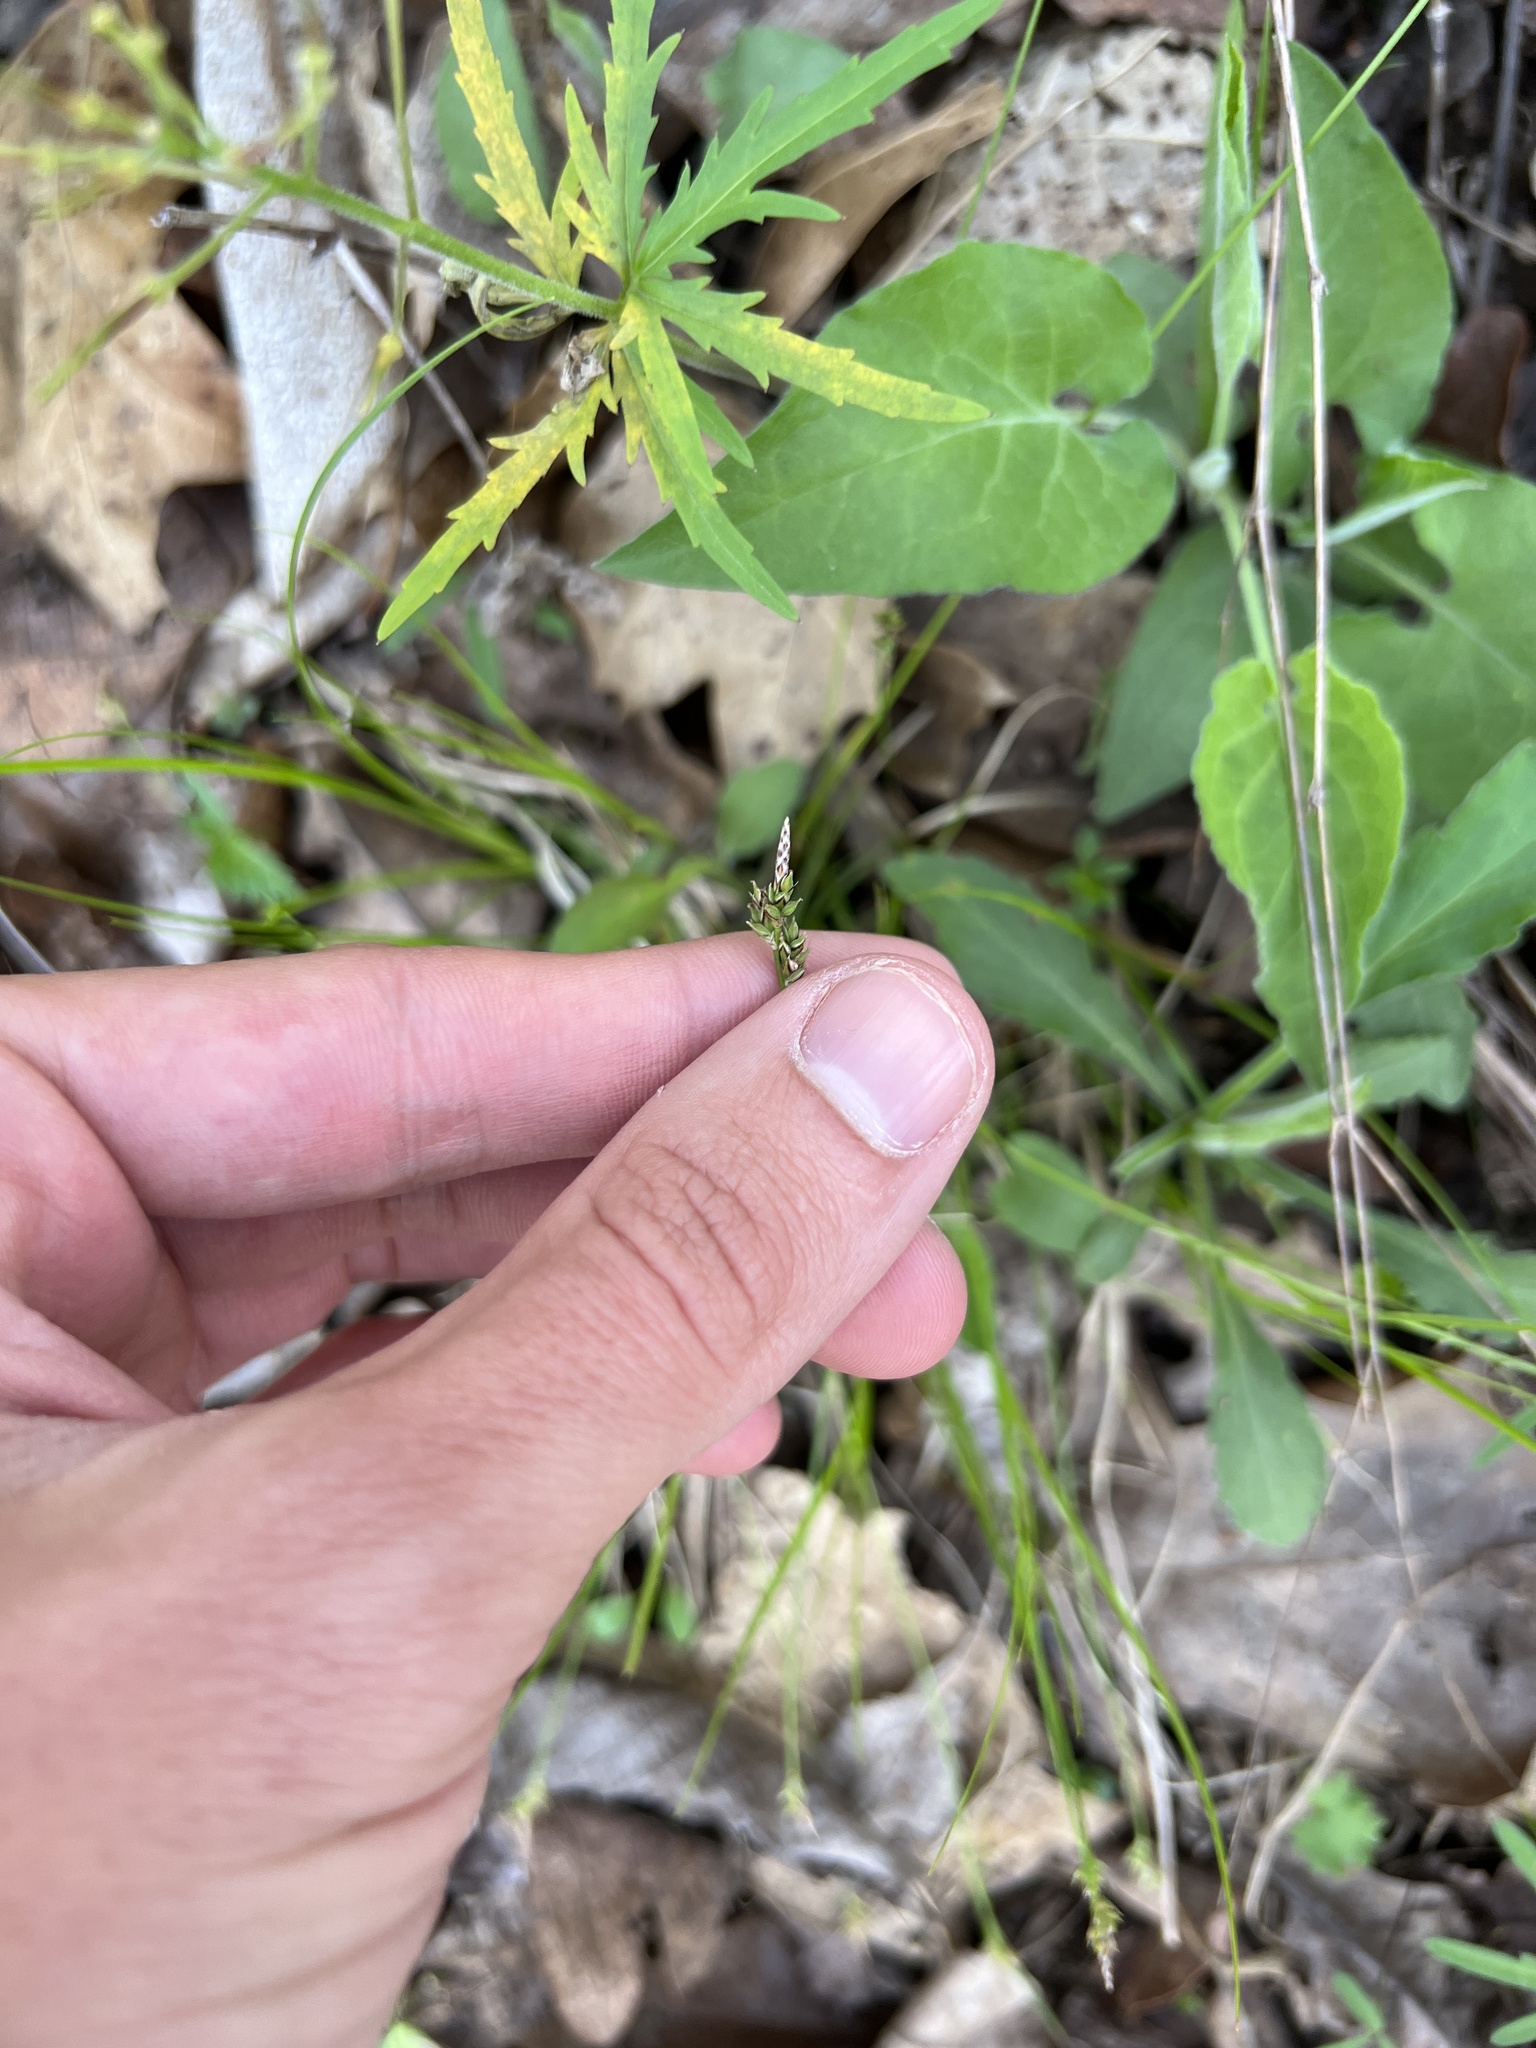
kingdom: Plantae
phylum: Tracheophyta
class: Liliopsida
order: Poales
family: Cyperaceae
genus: Carex
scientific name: Carex albicans
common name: Bellow-beaked sedge
